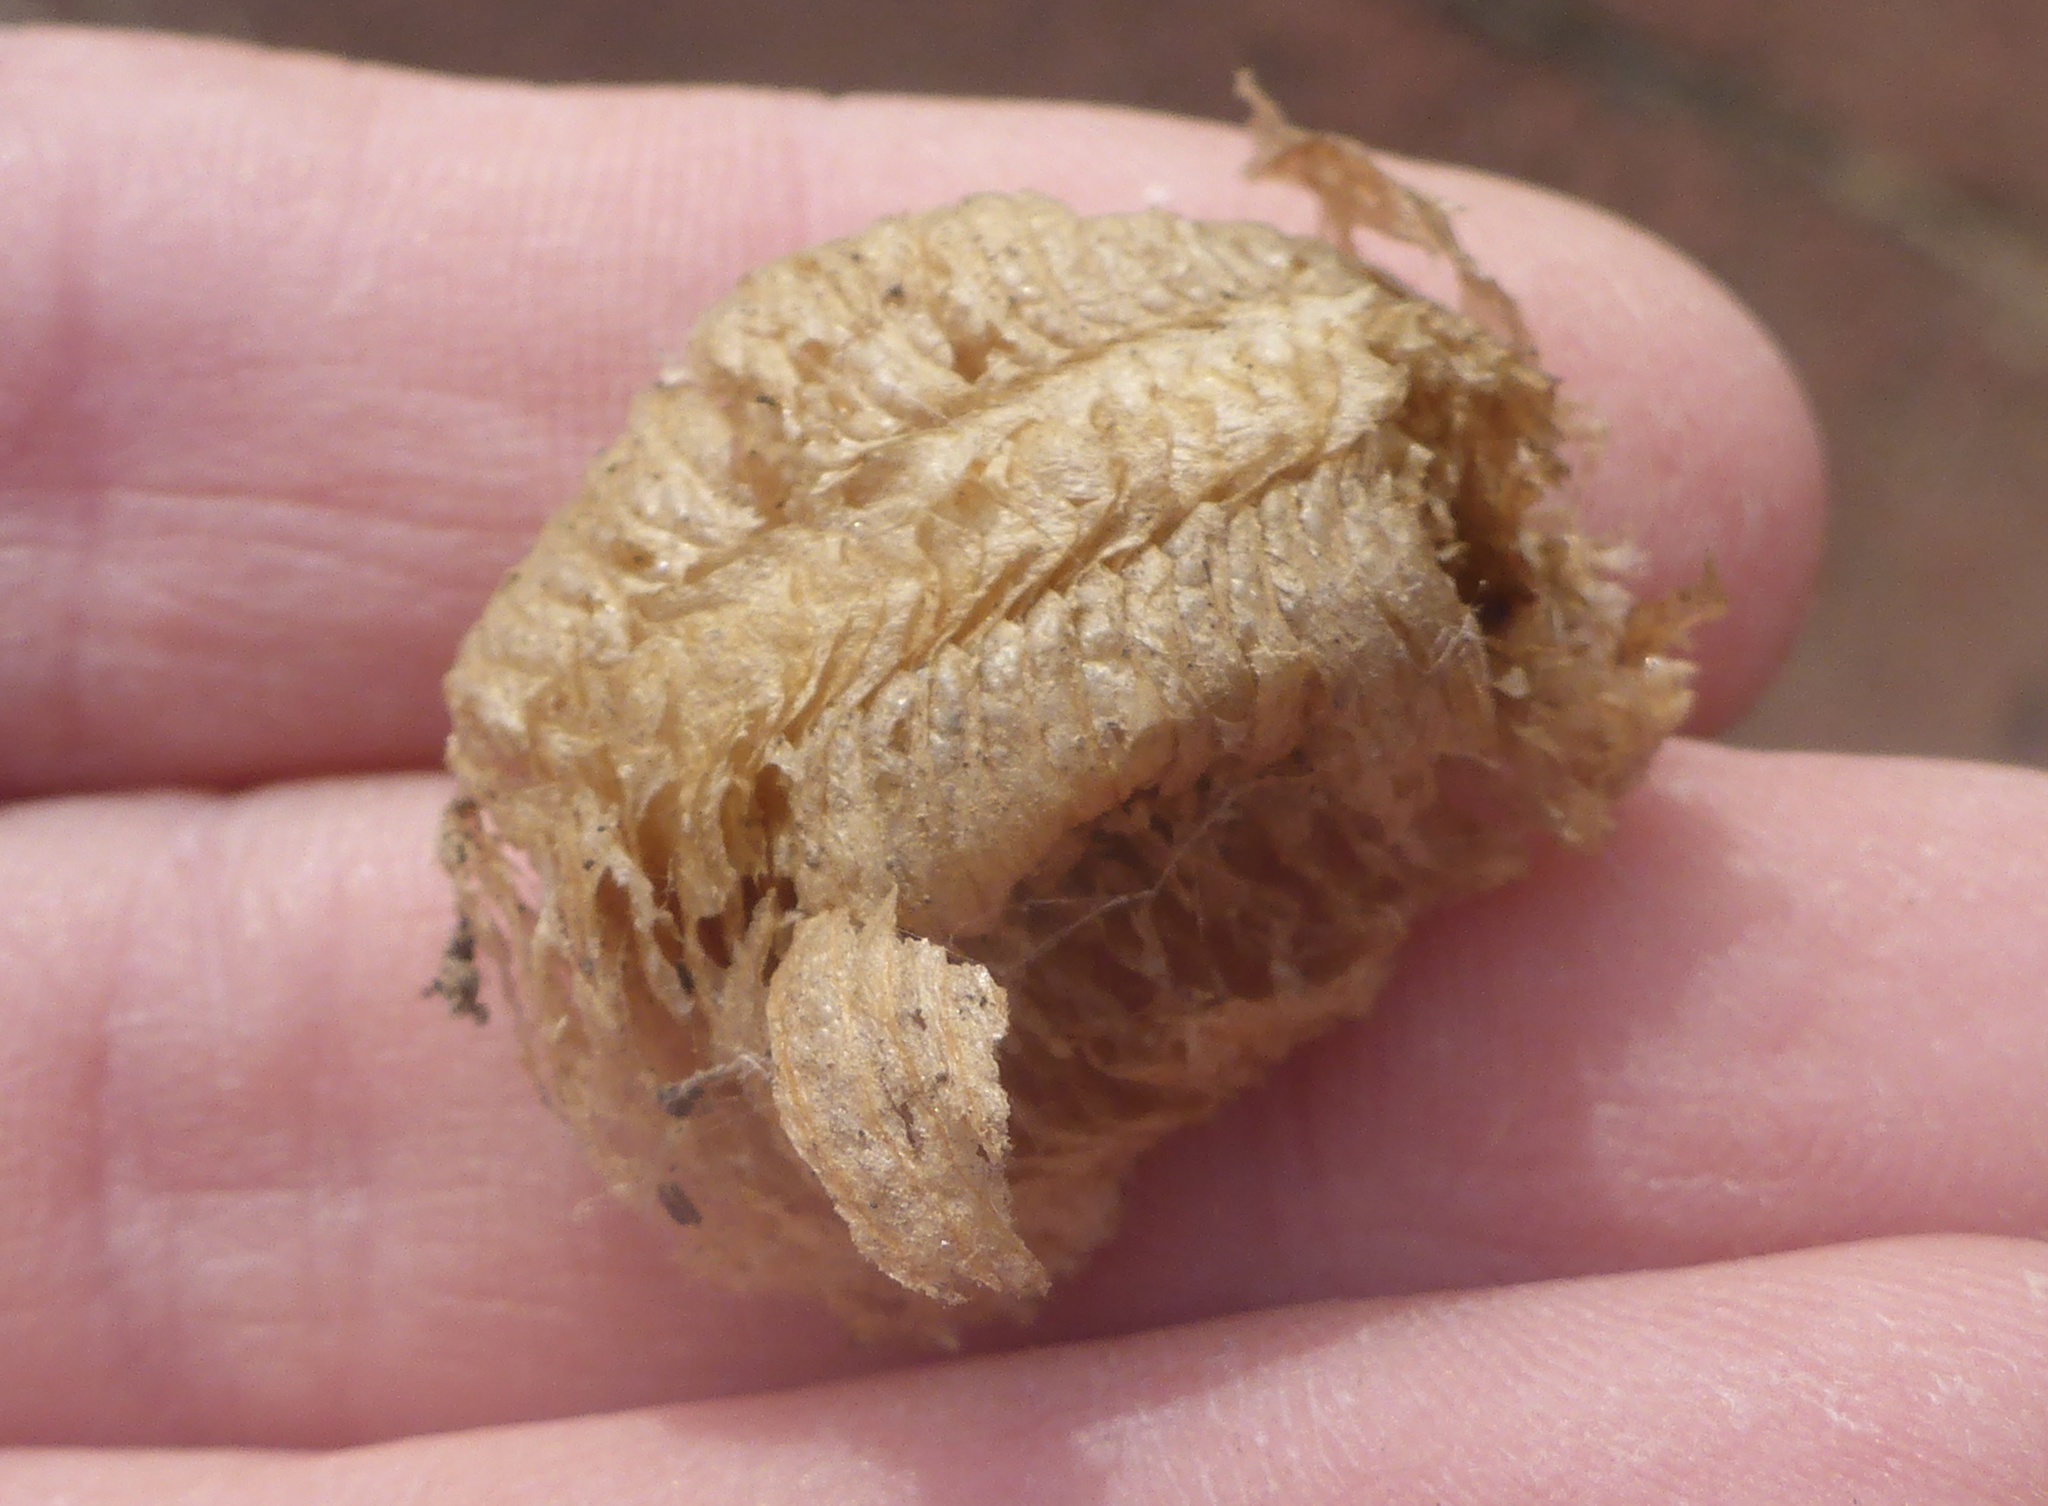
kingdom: Animalia
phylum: Arthropoda
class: Insecta
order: Mantodea
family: Mantidae
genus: Mantis
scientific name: Mantis religiosa
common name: Praying mantis
